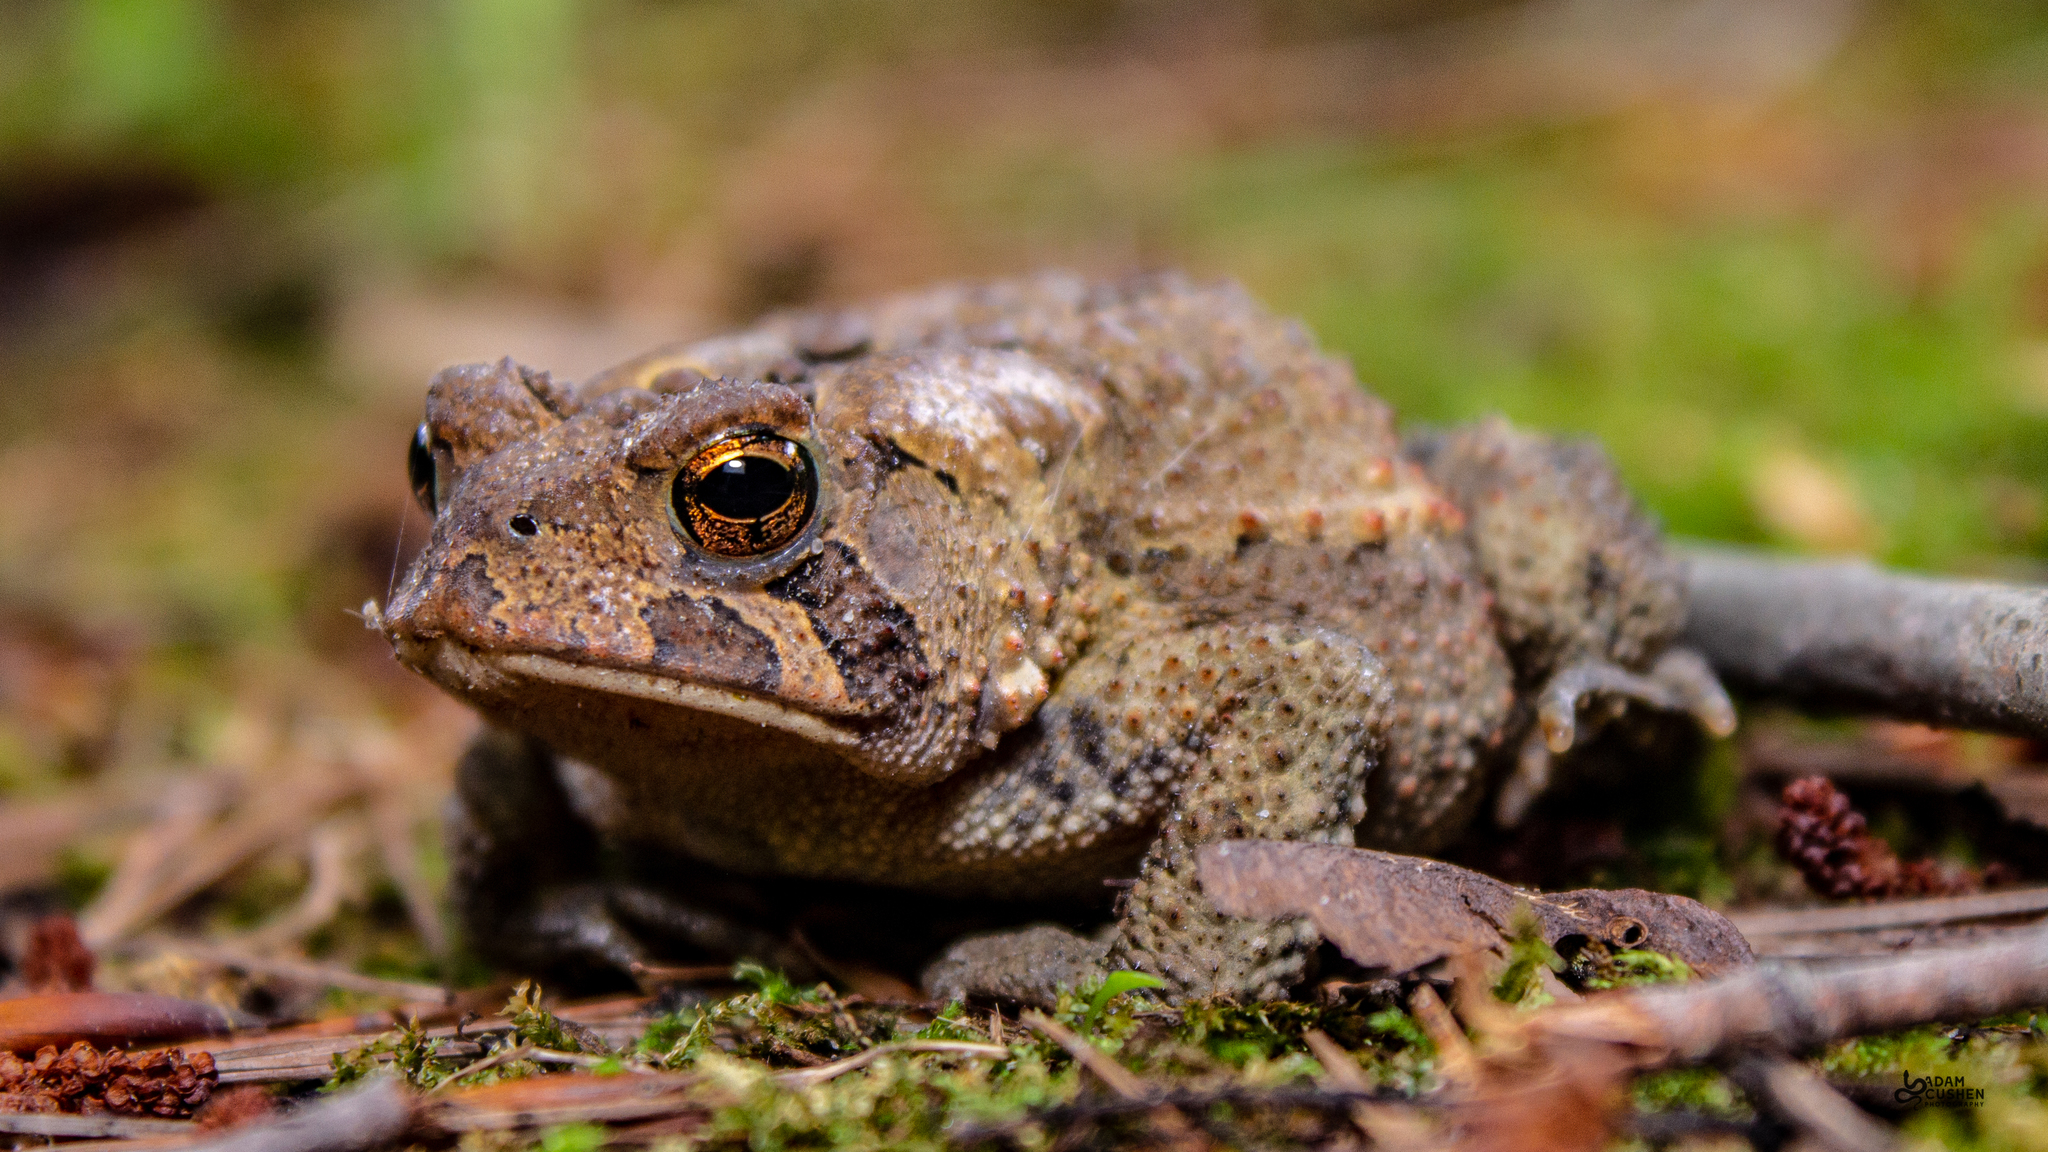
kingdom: Animalia
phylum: Chordata
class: Amphibia
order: Anura
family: Bufonidae
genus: Anaxyrus
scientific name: Anaxyrus americanus
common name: American toad
